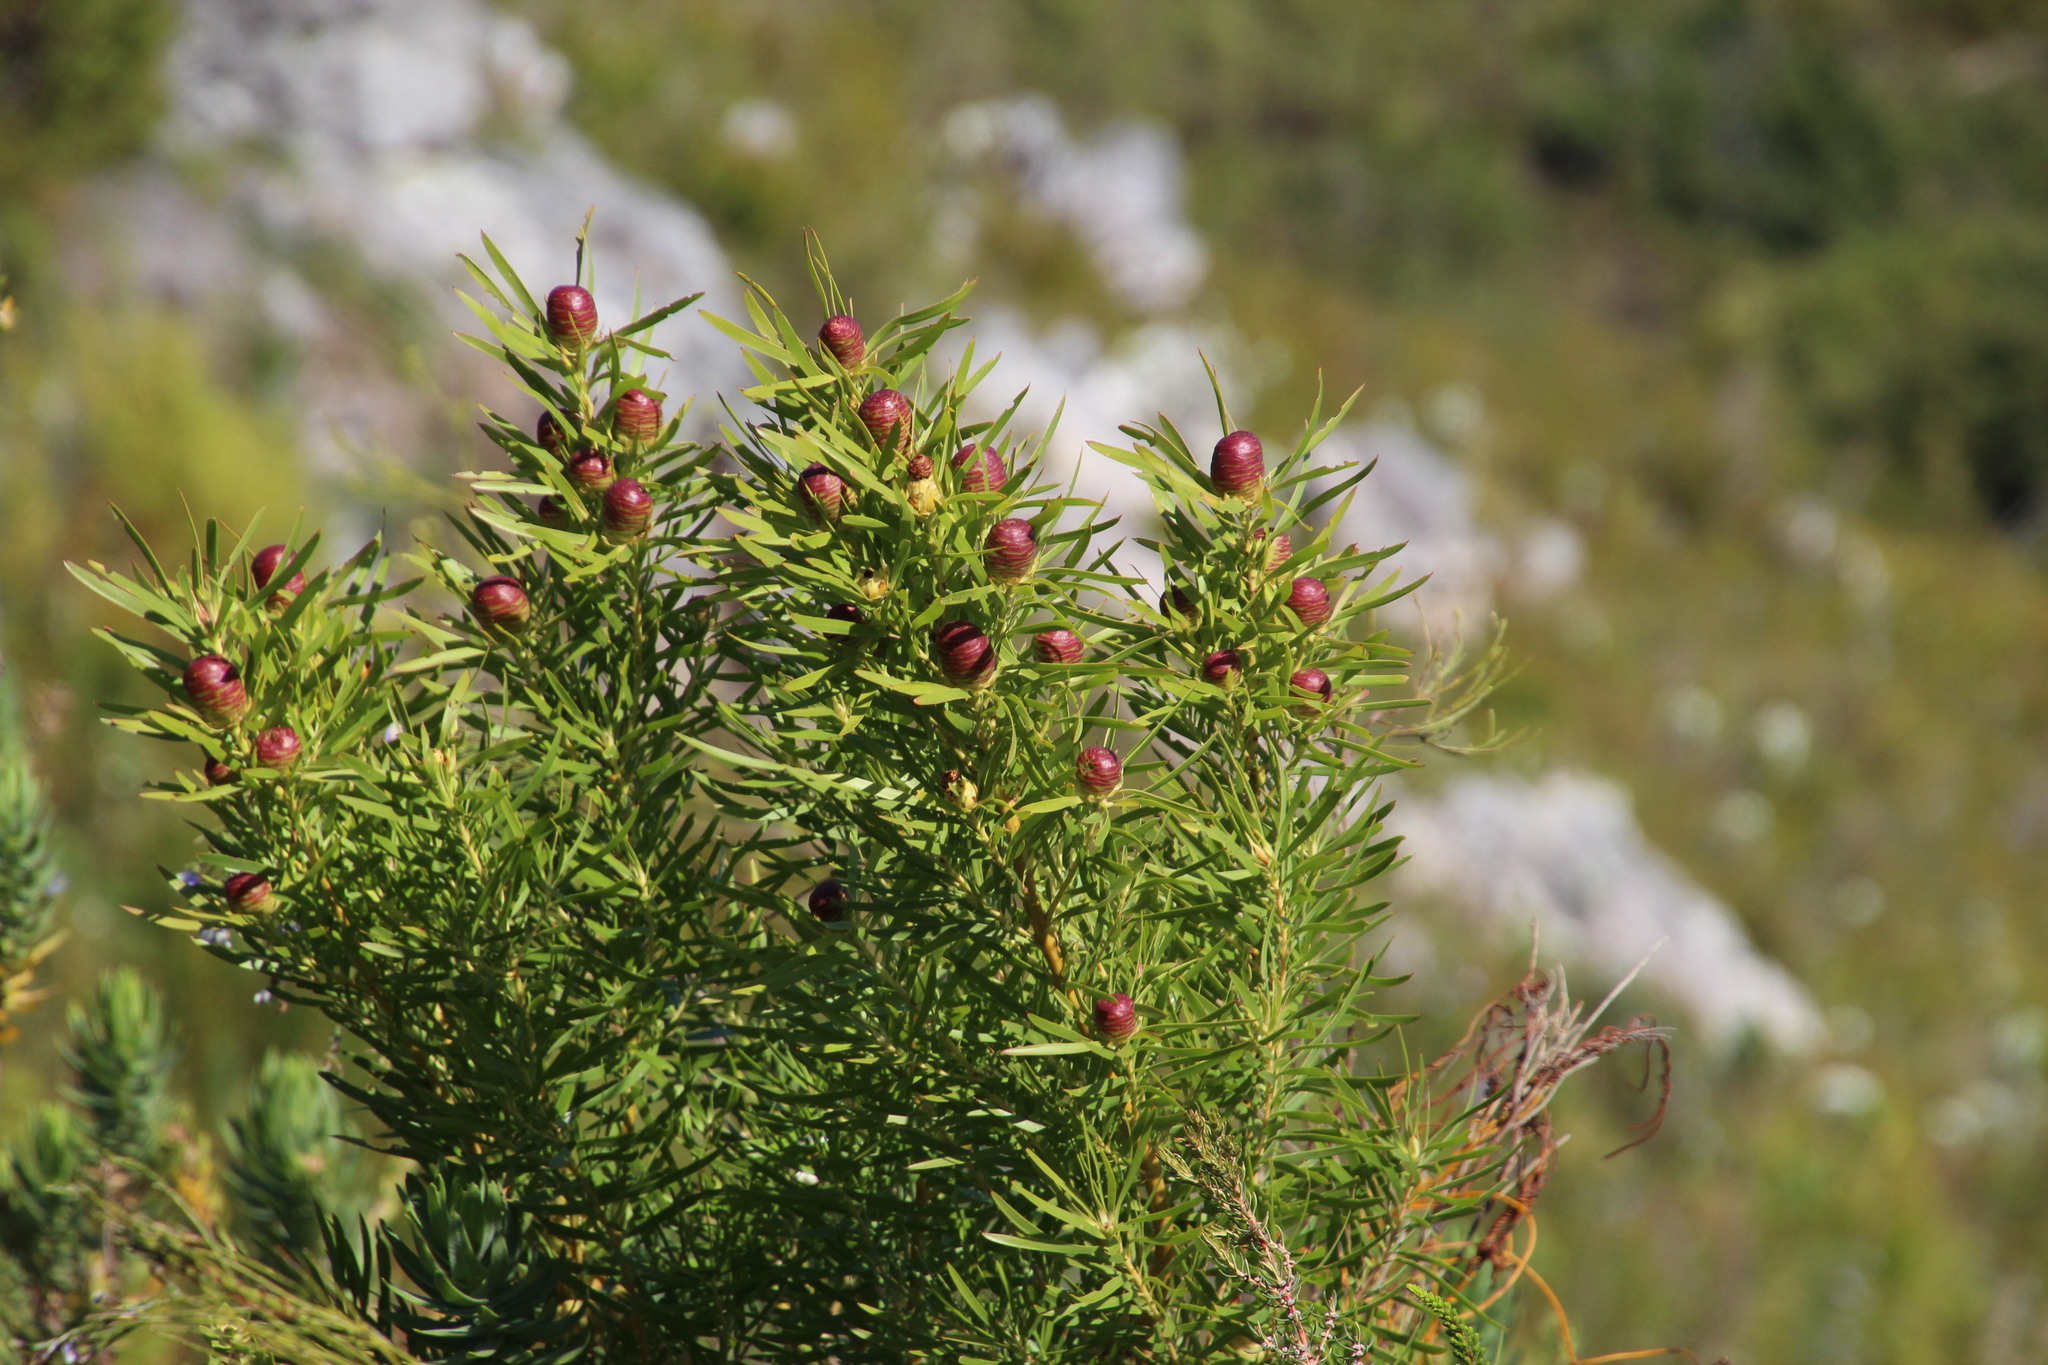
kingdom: Plantae
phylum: Tracheophyta
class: Magnoliopsida
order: Proteales
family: Proteaceae
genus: Leucadendron
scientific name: Leucadendron salicifolium
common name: Common stream conebush
